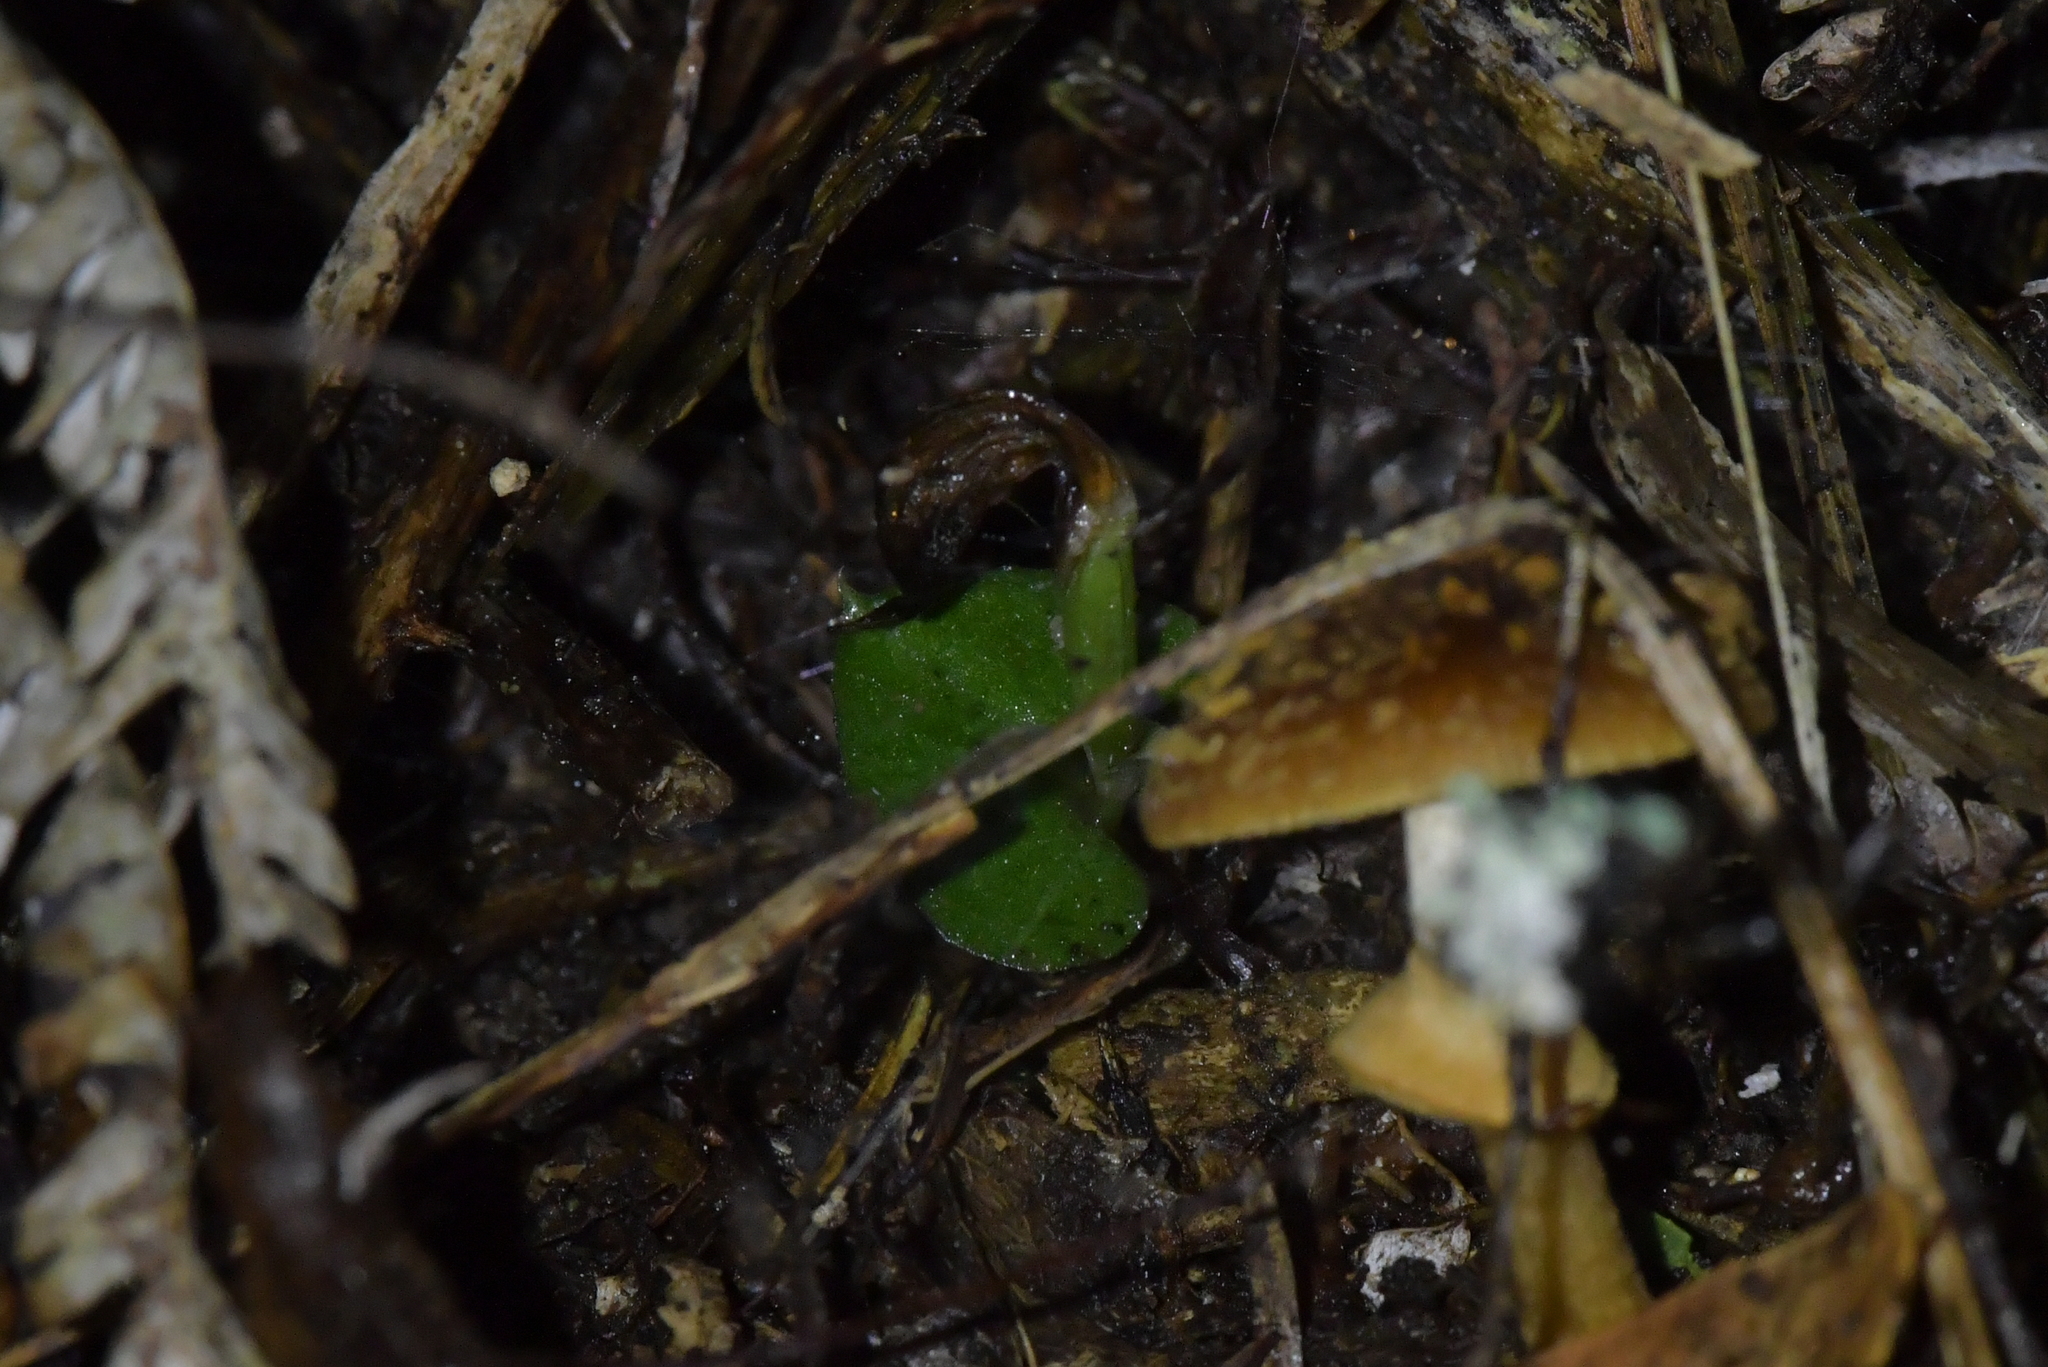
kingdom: Plantae
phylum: Tracheophyta
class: Liliopsida
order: Asparagales
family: Orchidaceae
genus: Corybas
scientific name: Corybas cheesemanii
